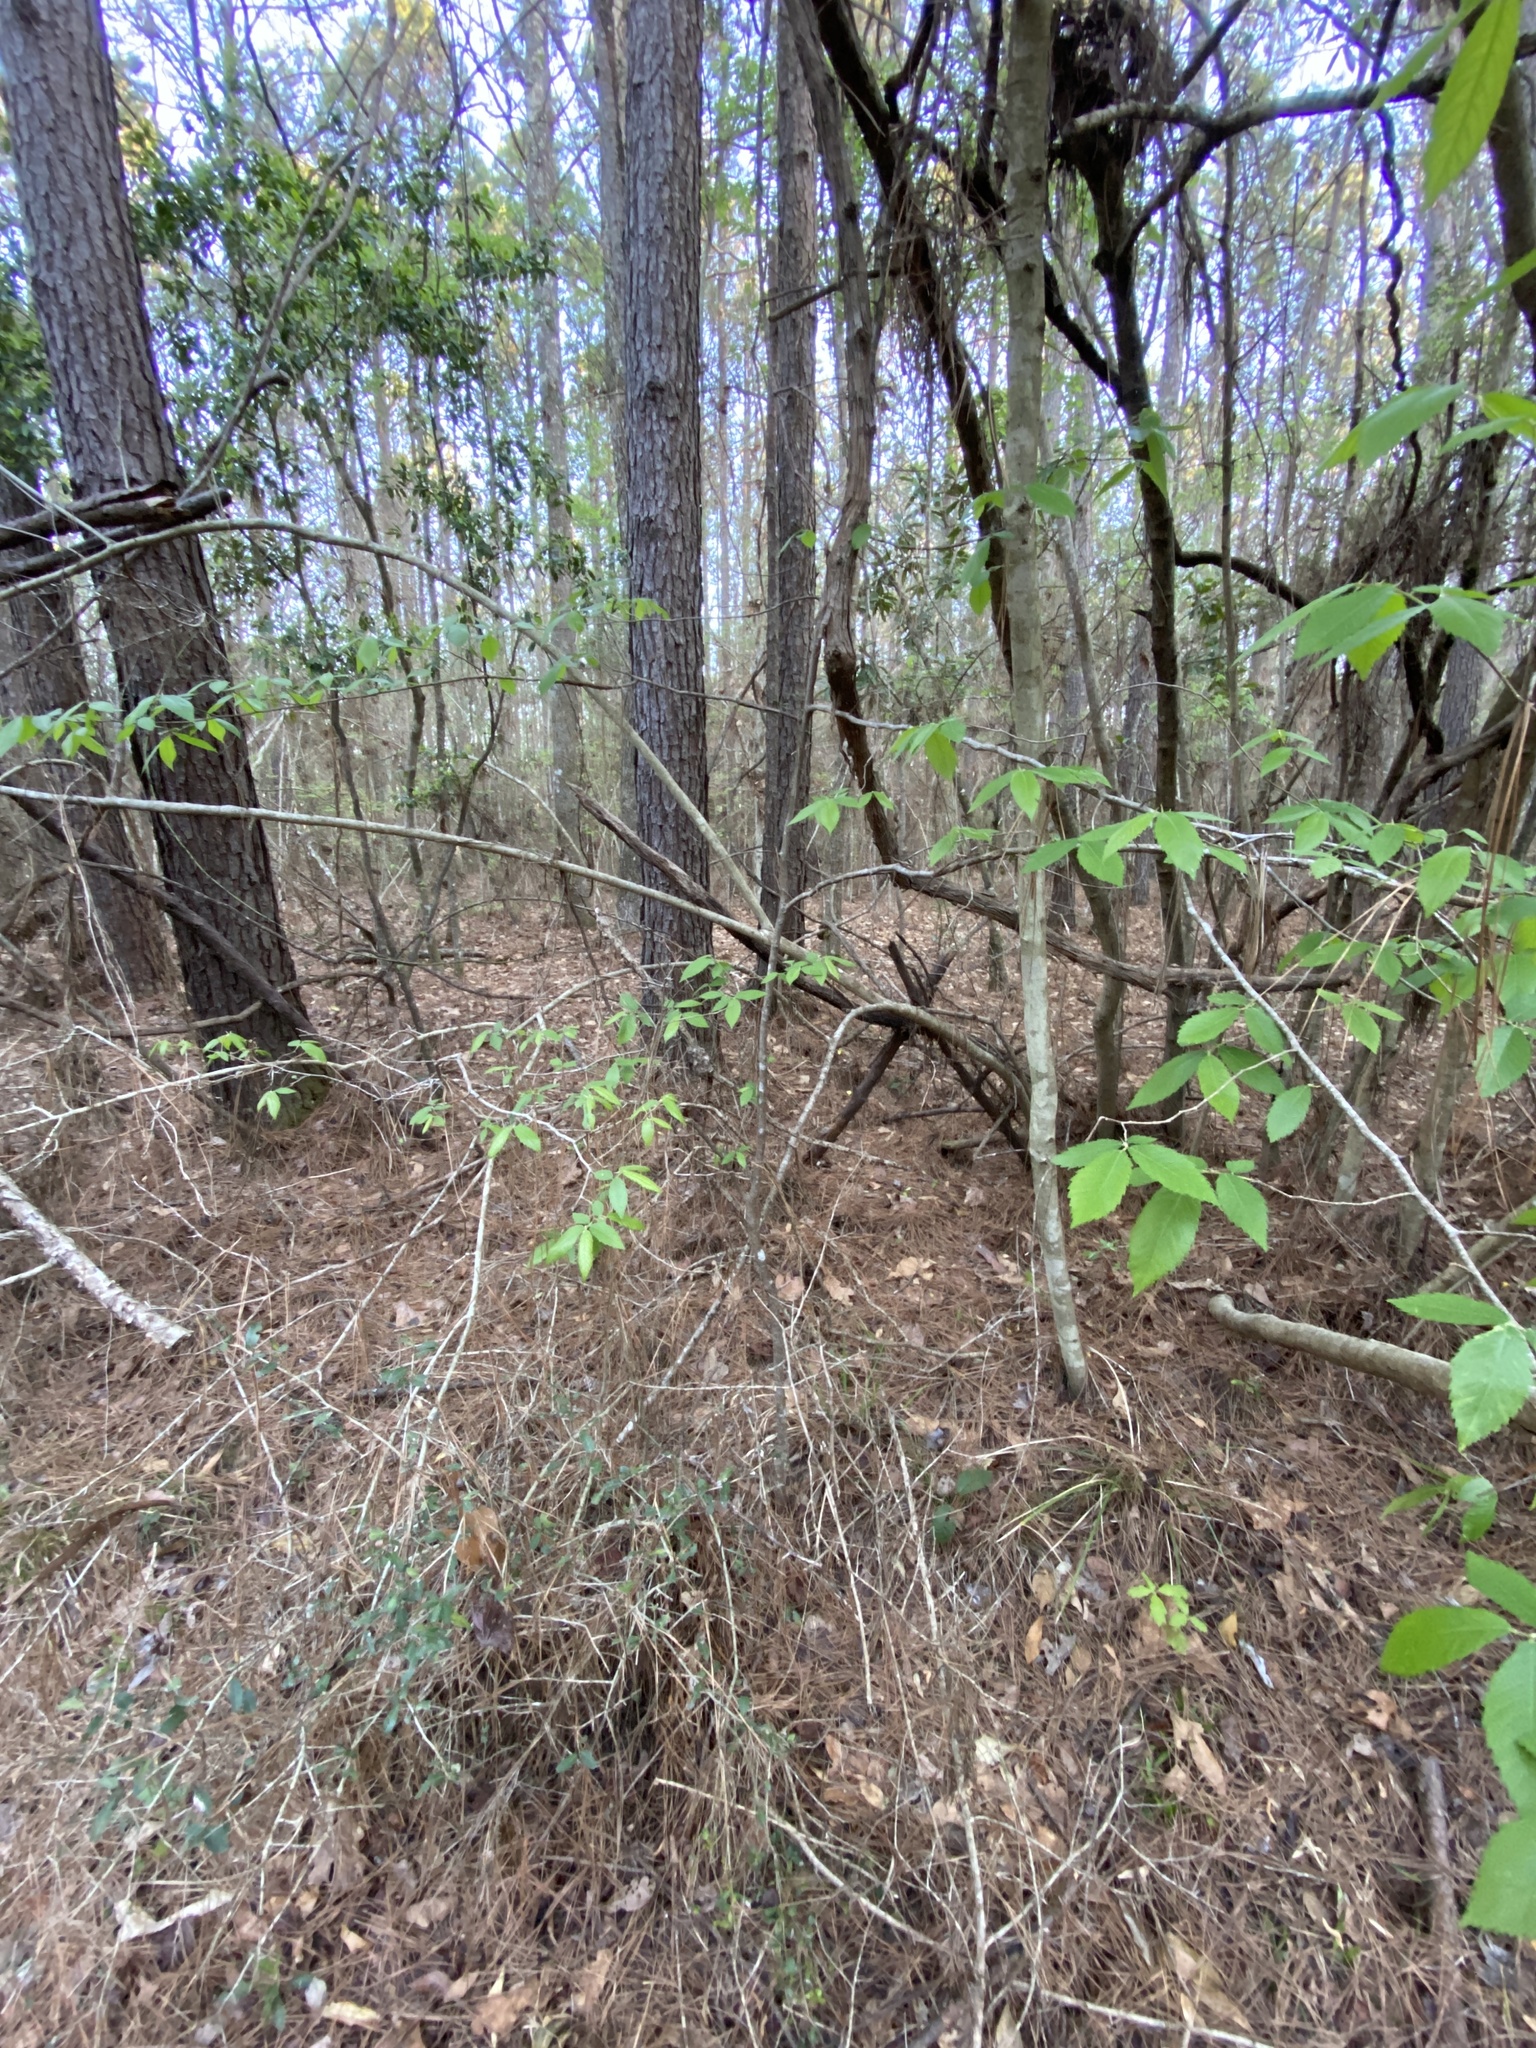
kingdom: Plantae
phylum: Tracheophyta
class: Magnoliopsida
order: Rosales
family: Ulmaceae
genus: Ulmus
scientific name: Ulmus alata
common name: Winged elm
